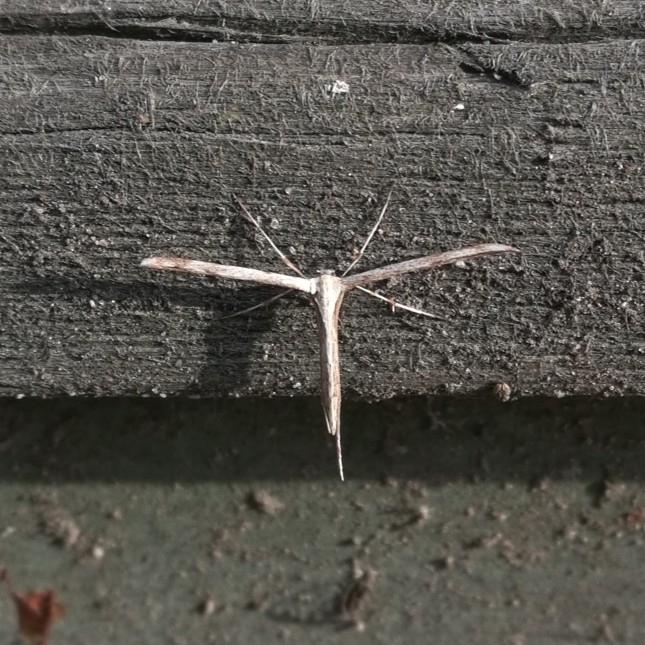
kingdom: Animalia
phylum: Arthropoda
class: Insecta
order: Lepidoptera
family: Pterophoridae
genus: Emmelina
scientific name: Emmelina monodactyla
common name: Common plume
